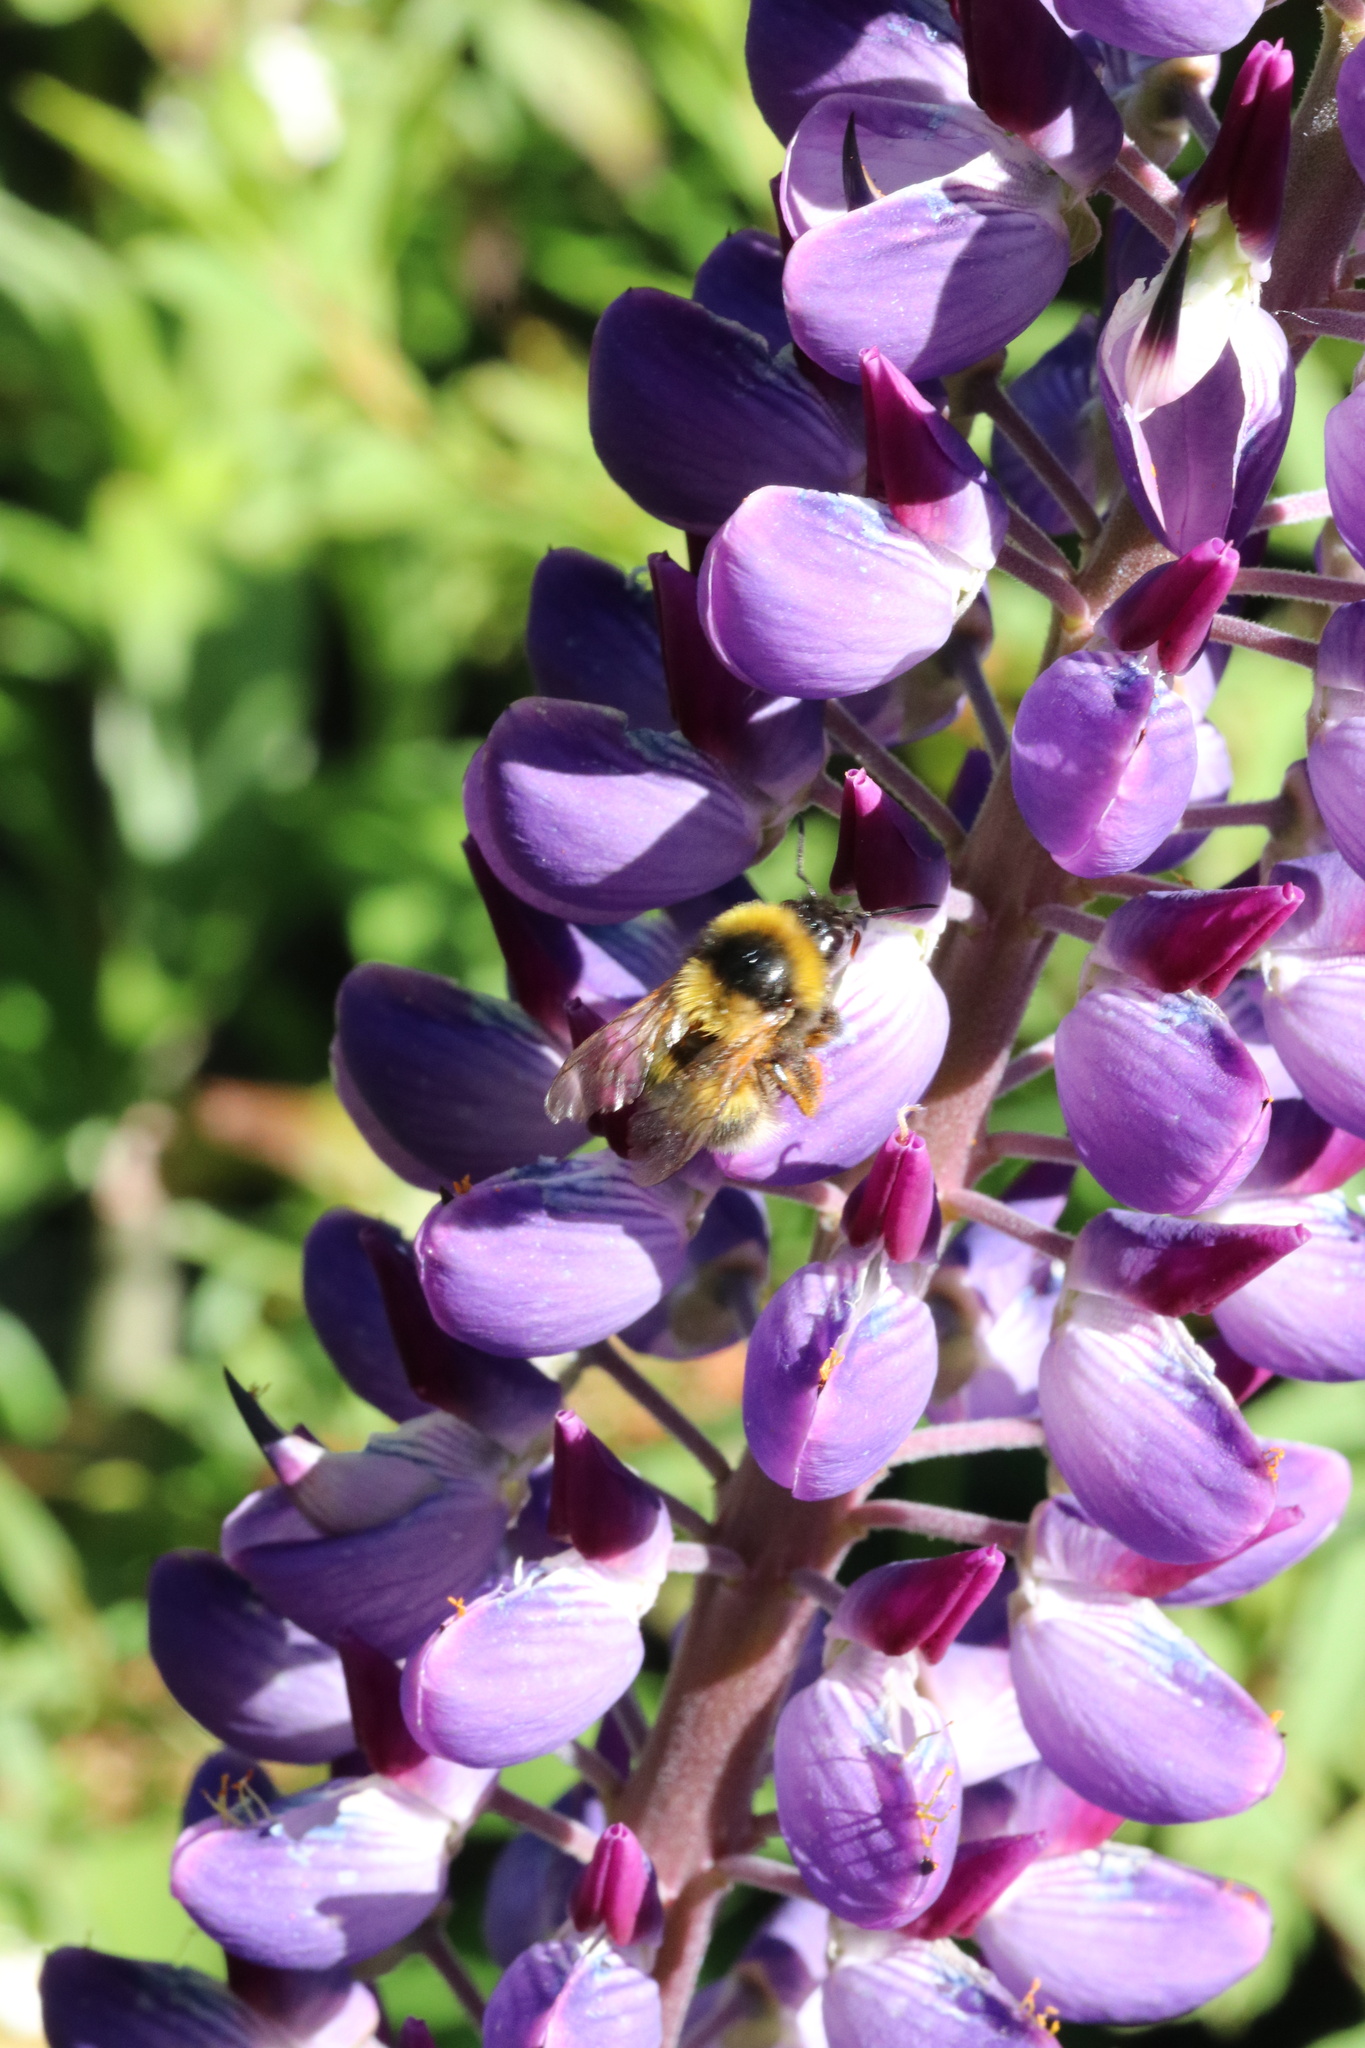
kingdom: Animalia
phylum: Arthropoda
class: Insecta
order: Hymenoptera
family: Apidae
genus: Bombus
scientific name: Bombus ruderatus
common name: Large garden bumblebee
